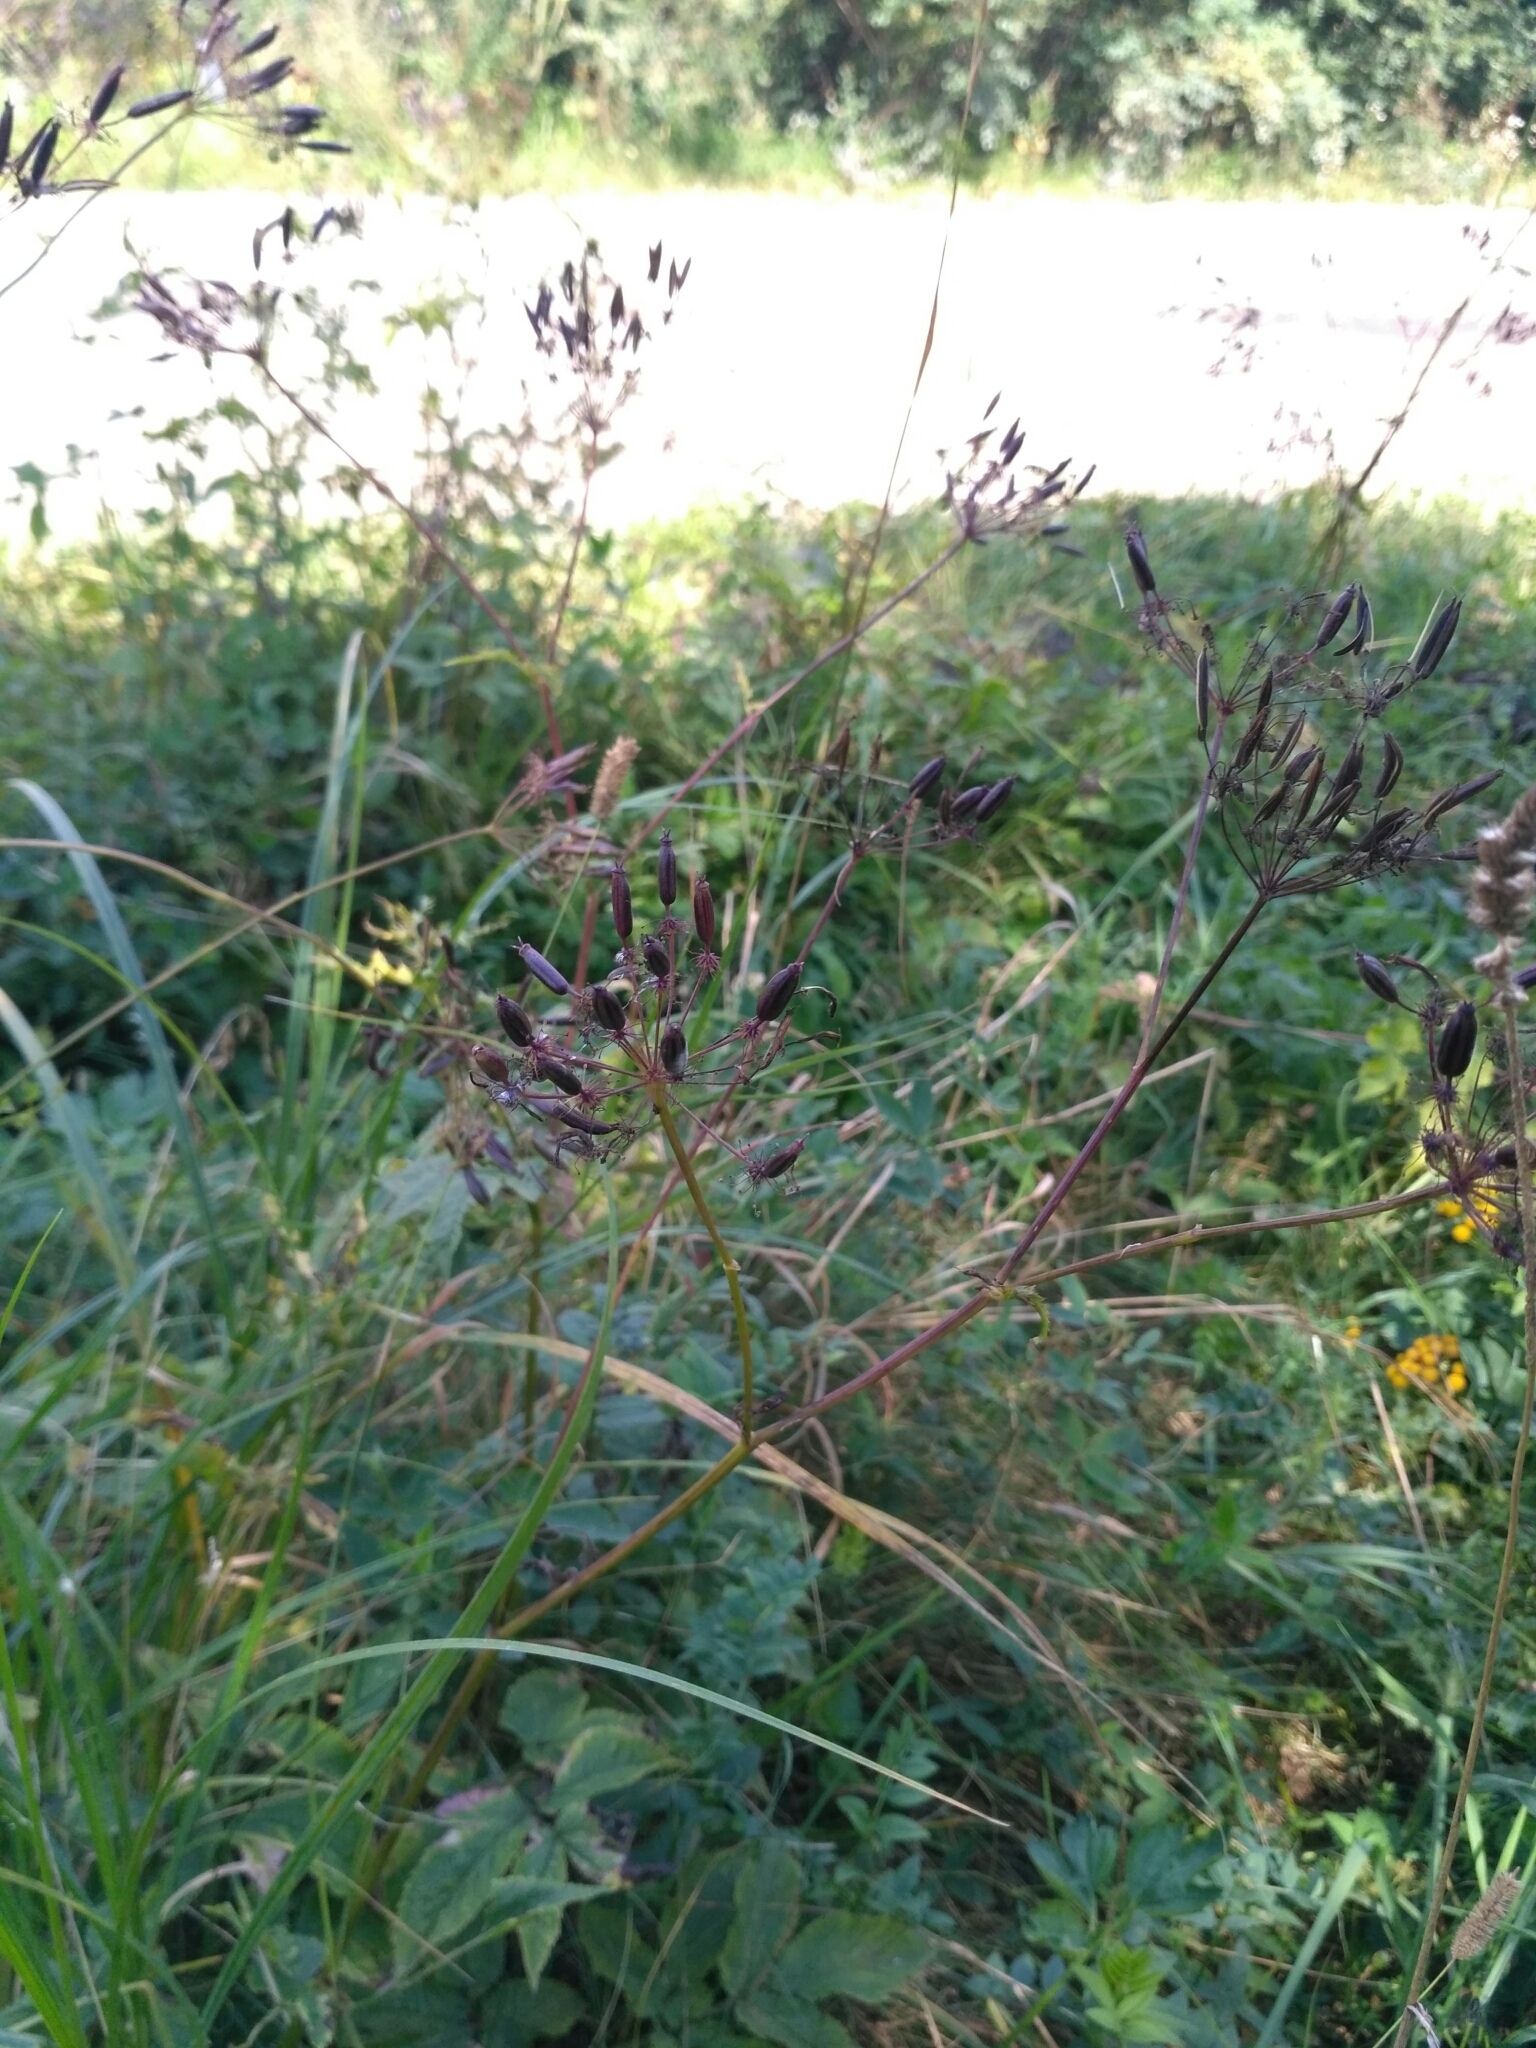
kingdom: Plantae
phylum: Tracheophyta
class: Magnoliopsida
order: Apiales
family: Apiaceae
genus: Chaerophyllum
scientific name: Chaerophyllum aromaticum
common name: Broadleaf chervil
